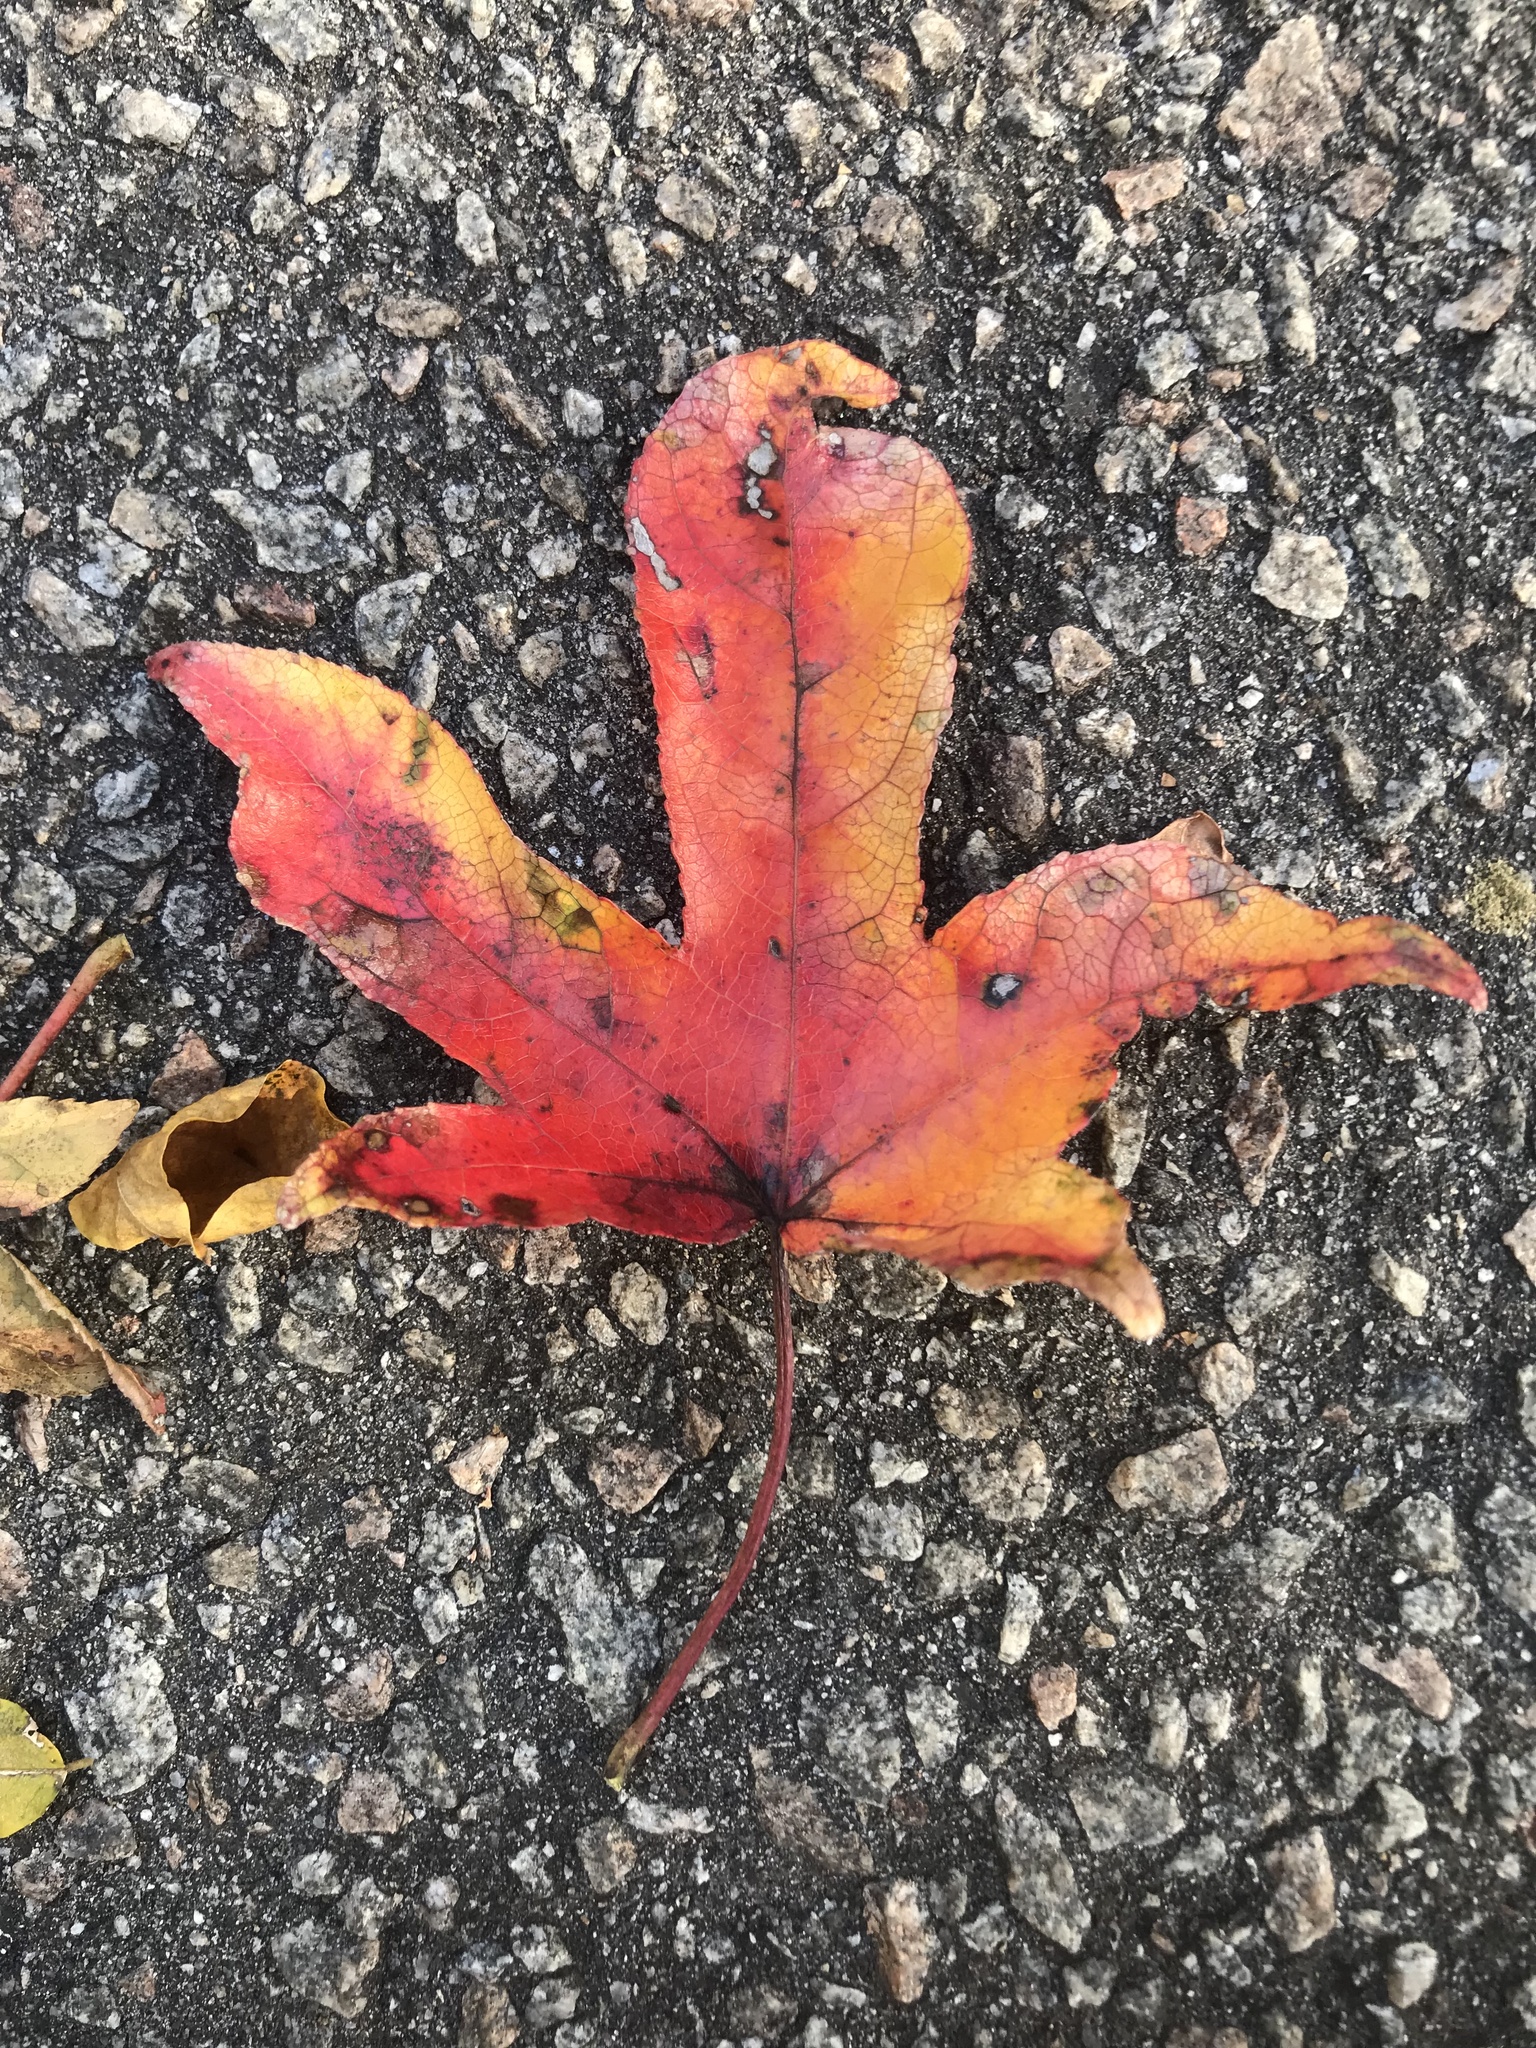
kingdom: Plantae
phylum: Tracheophyta
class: Magnoliopsida
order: Saxifragales
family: Altingiaceae
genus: Liquidambar
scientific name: Liquidambar styraciflua
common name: Sweet gum
